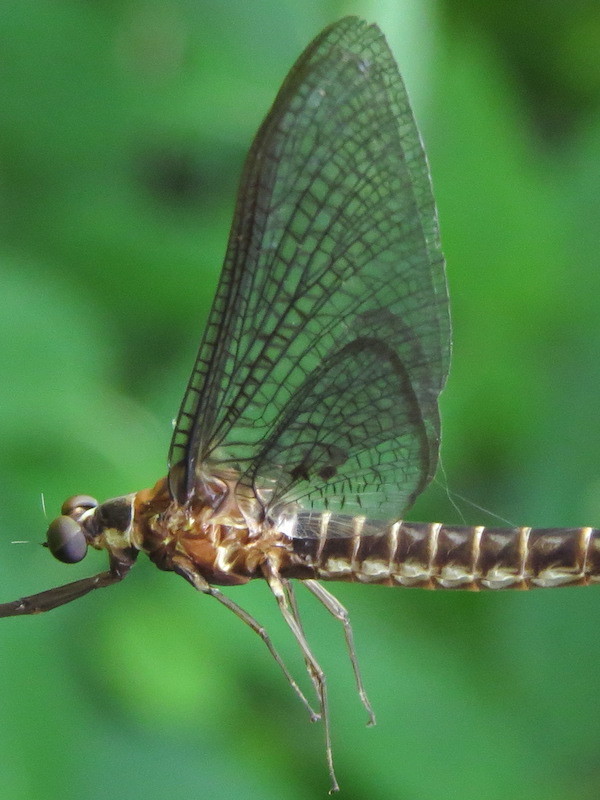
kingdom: Animalia
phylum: Arthropoda
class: Insecta
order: Ephemeroptera
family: Ephemeridae
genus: Hexagenia
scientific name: Hexagenia limbata
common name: Giant mayfly
